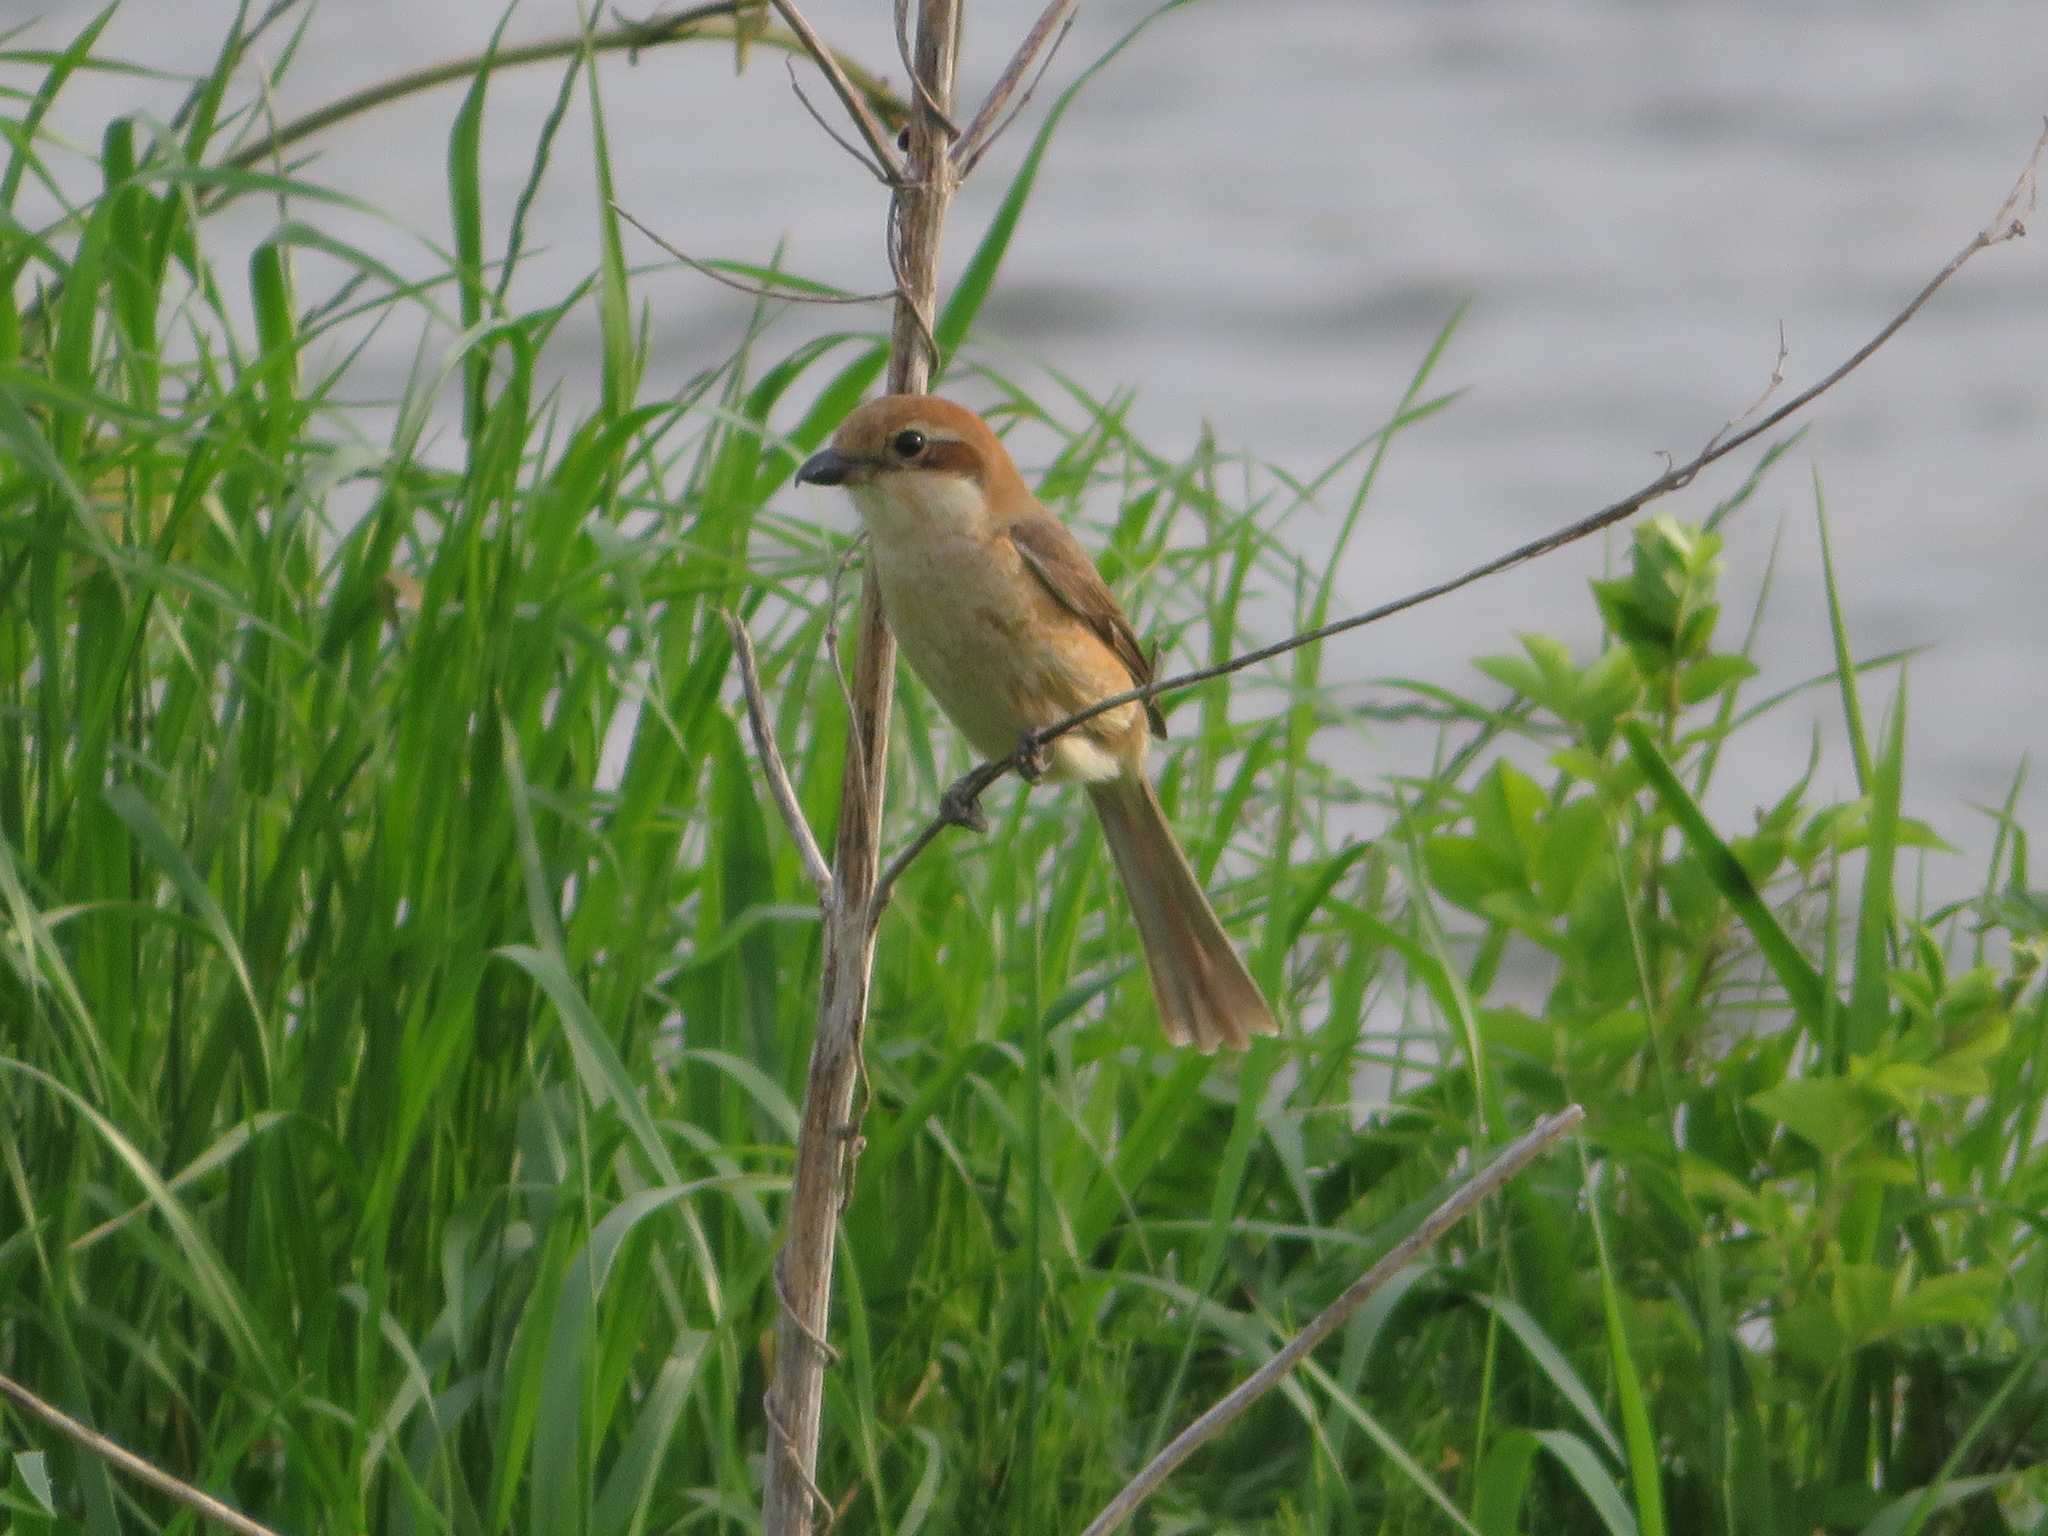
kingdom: Animalia
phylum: Chordata
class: Aves
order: Passeriformes
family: Laniidae
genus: Lanius
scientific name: Lanius bucephalus
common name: Bull-headed shrike
